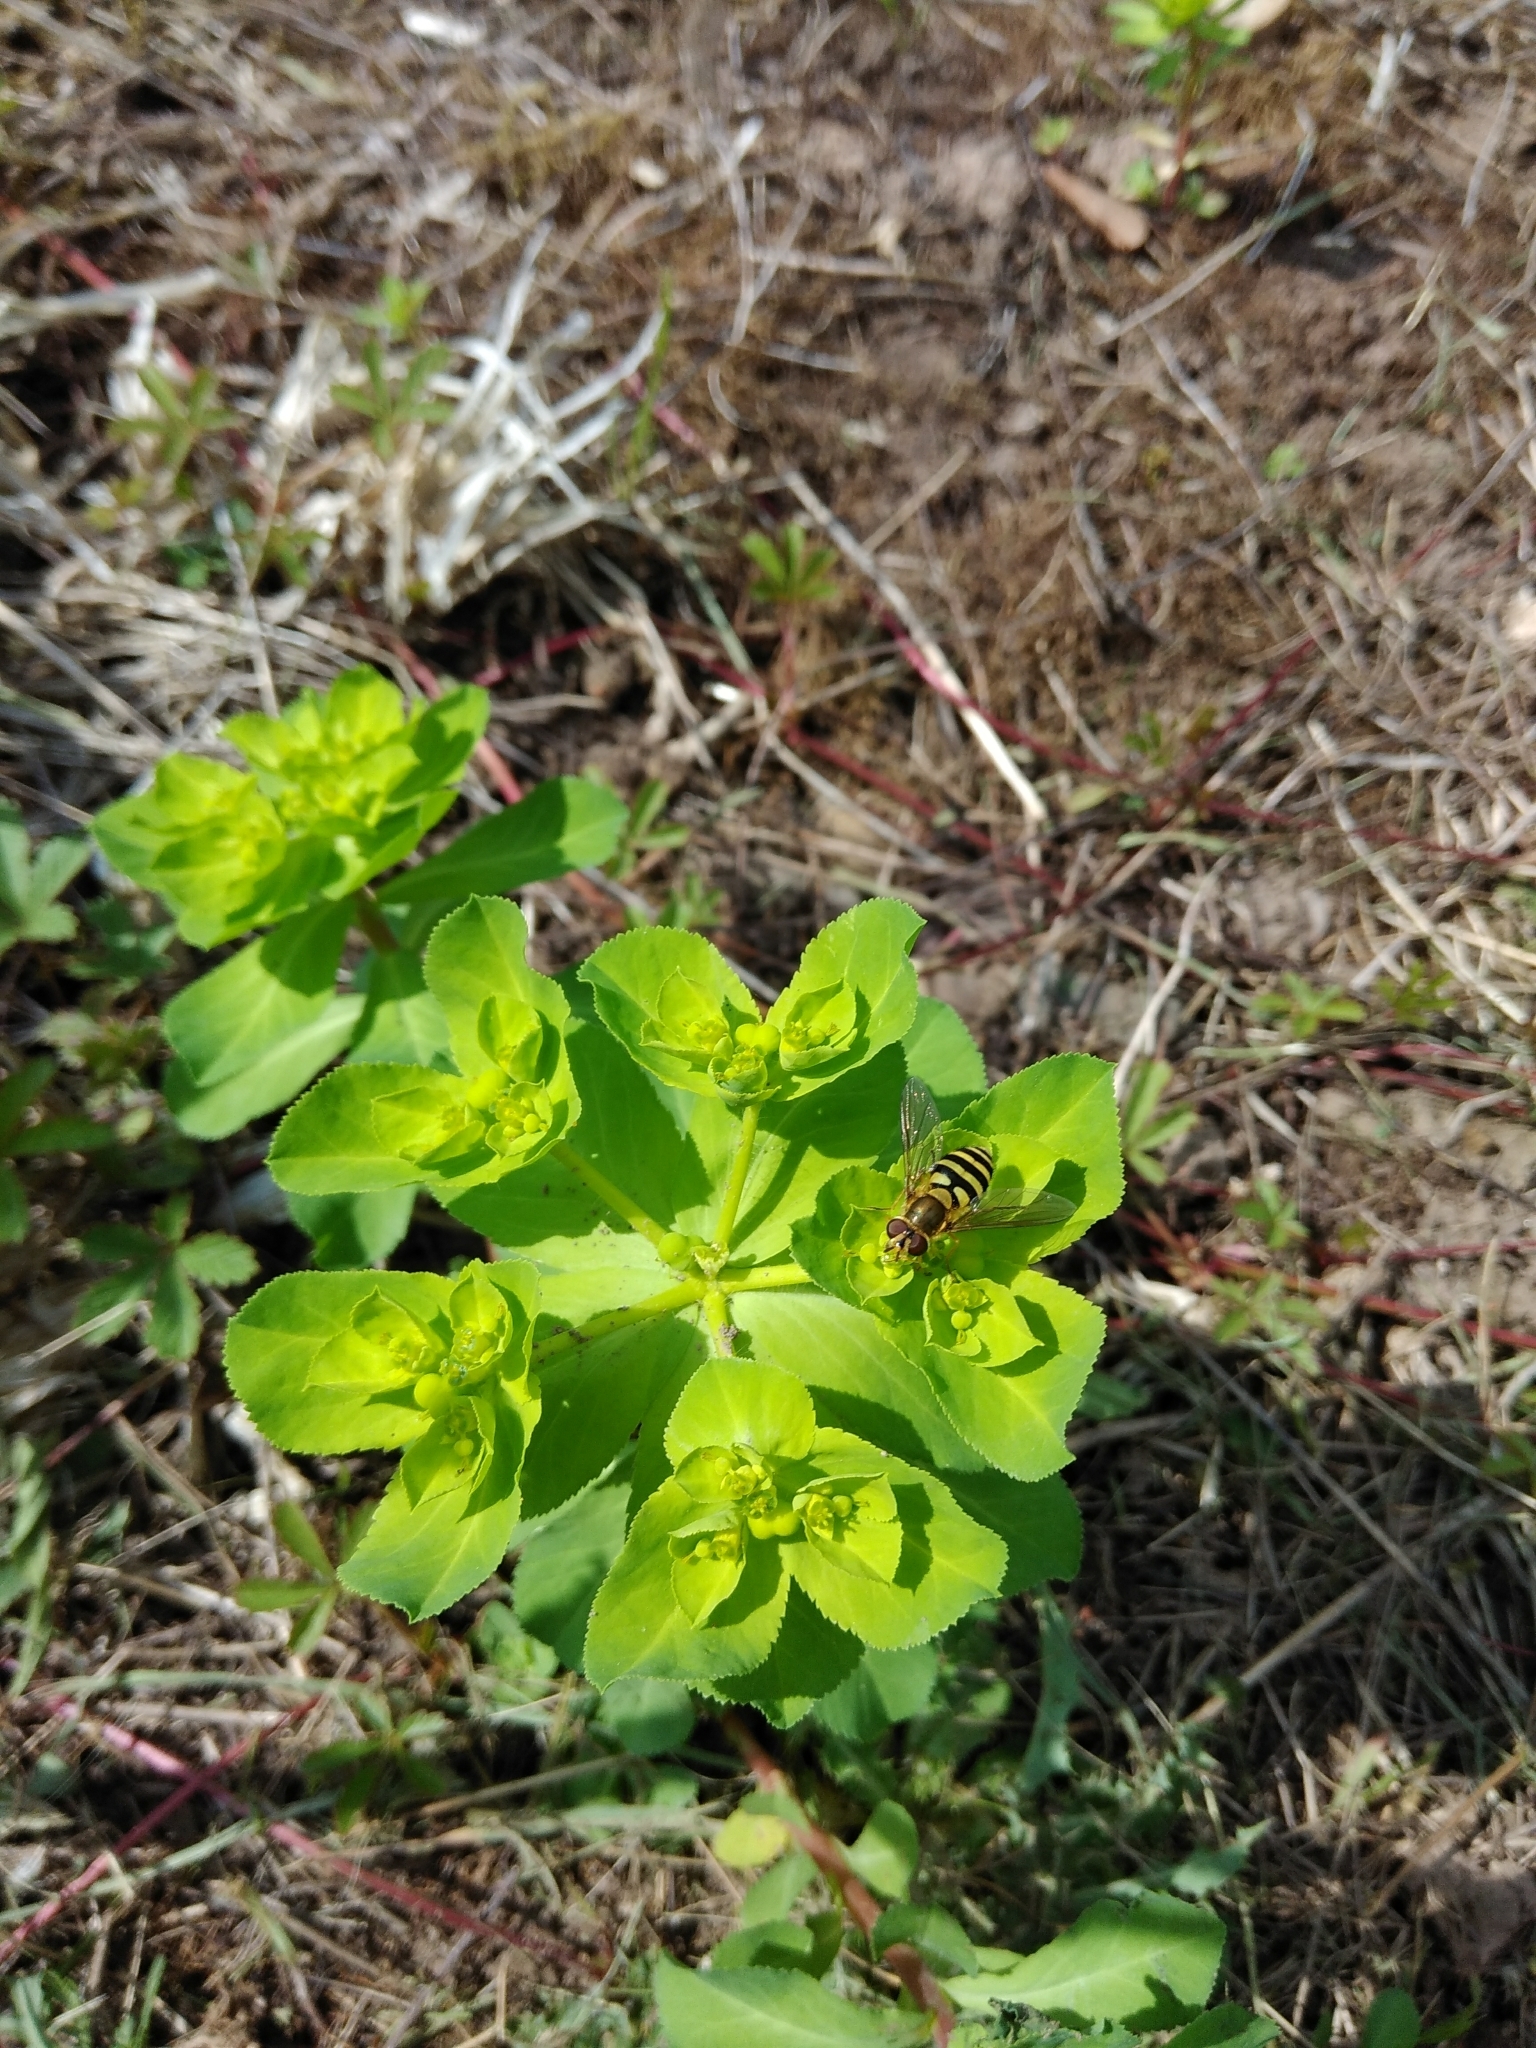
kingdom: Plantae
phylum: Tracheophyta
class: Magnoliopsida
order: Malpighiales
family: Euphorbiaceae
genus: Euphorbia
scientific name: Euphorbia helioscopia
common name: Sun spurge
